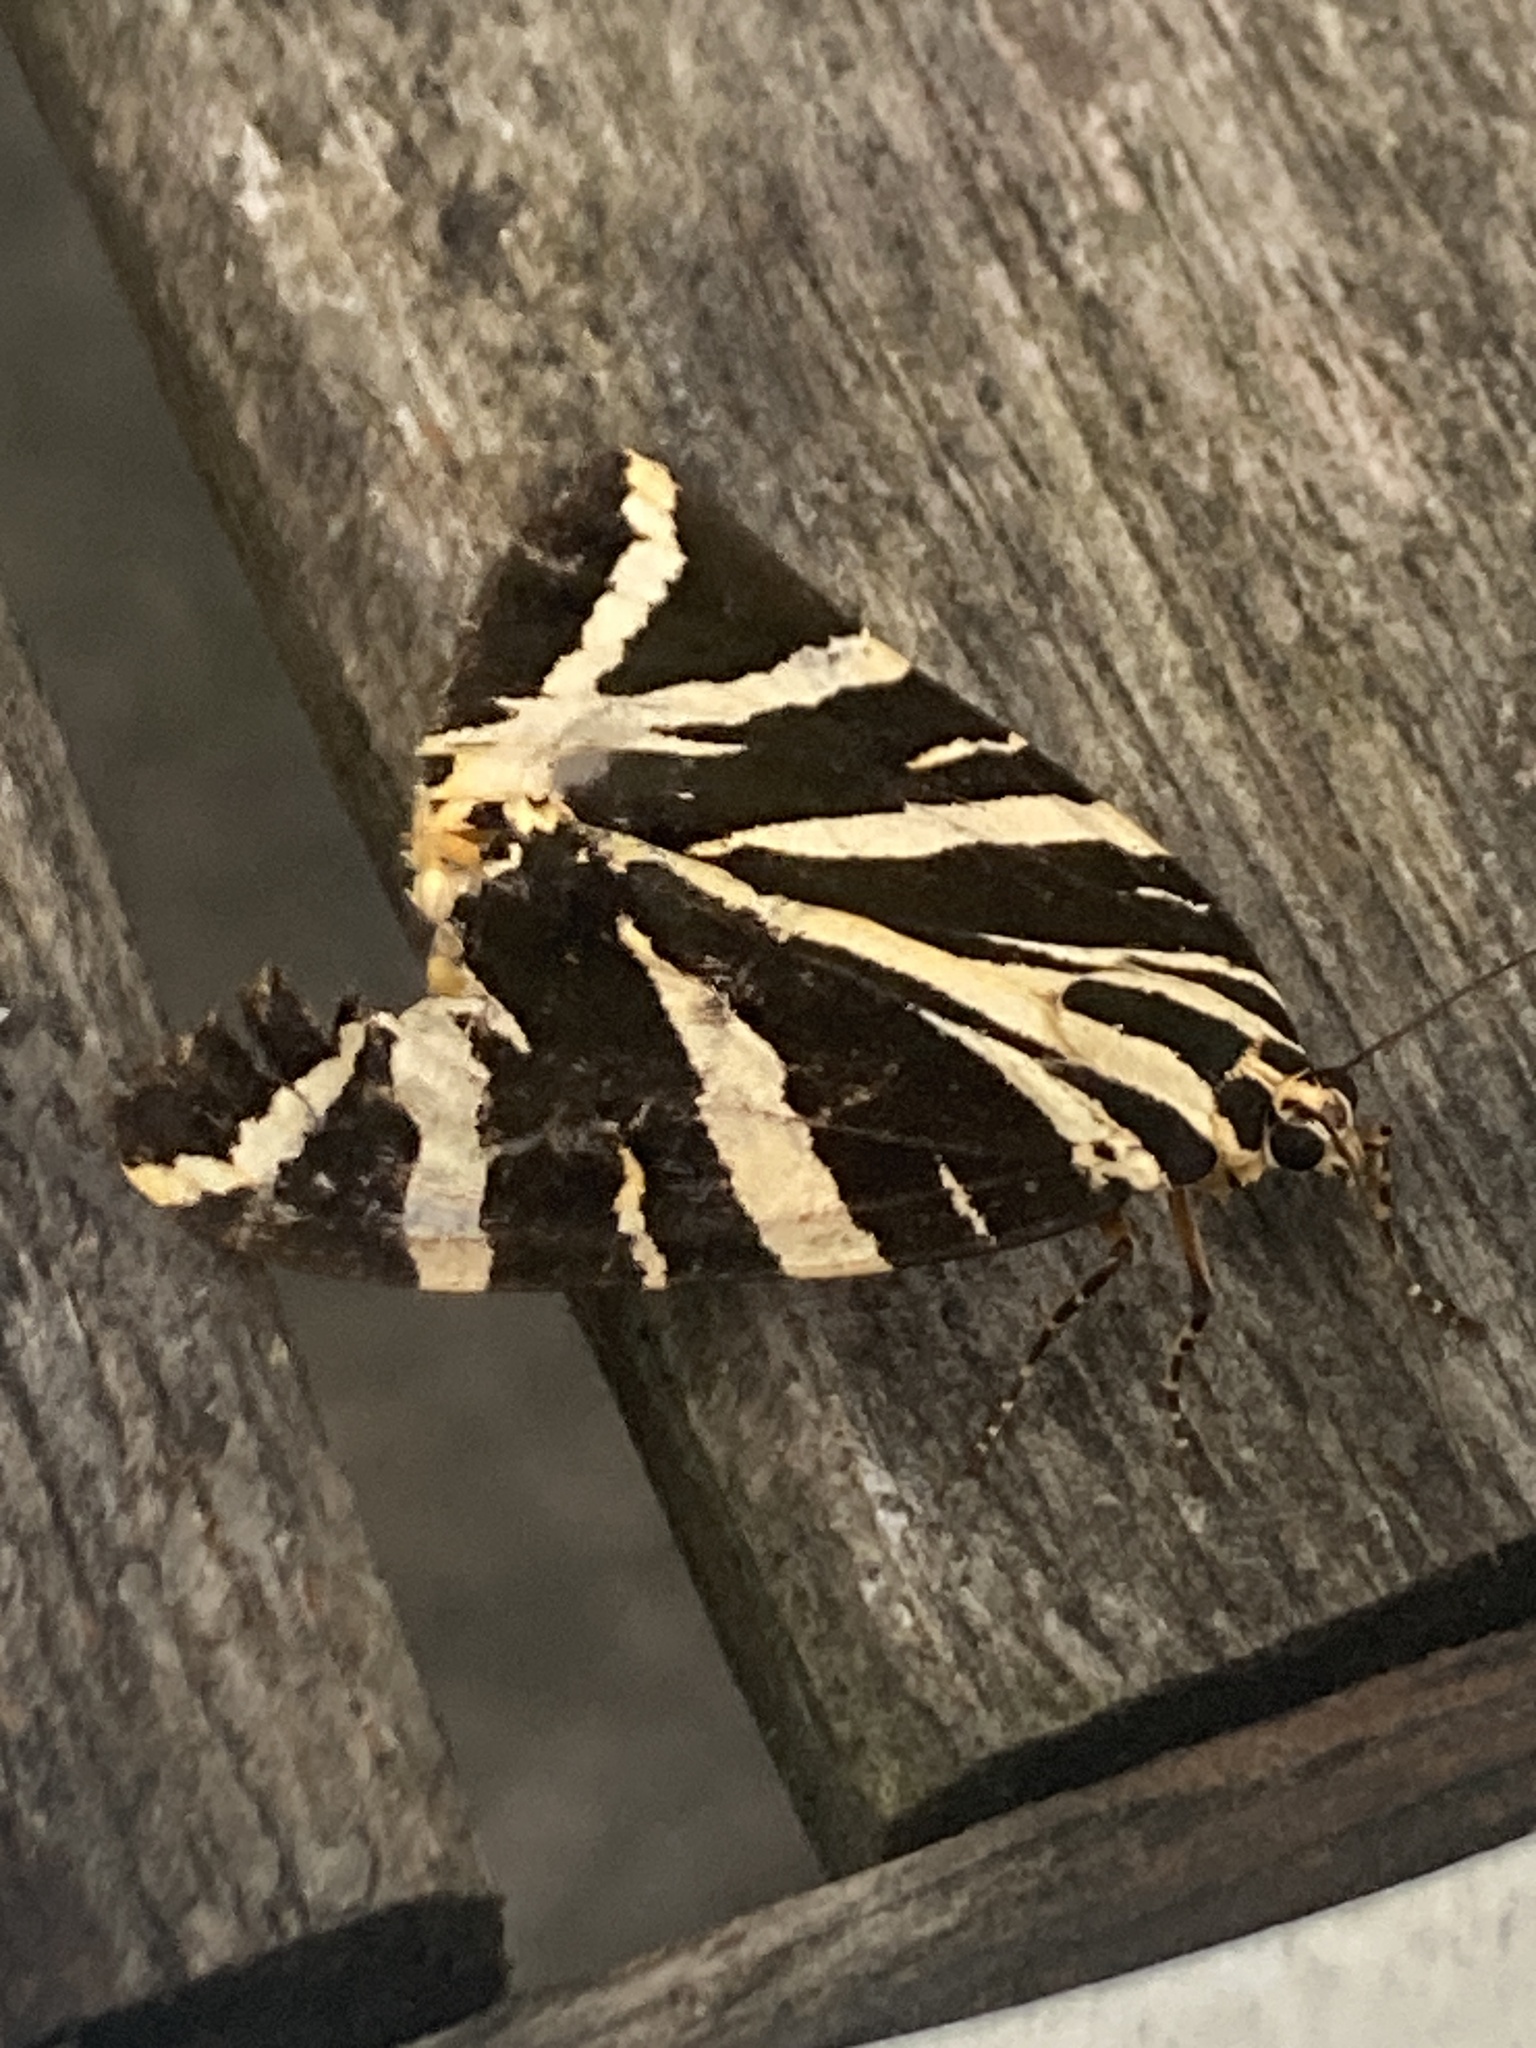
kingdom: Animalia
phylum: Arthropoda
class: Insecta
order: Lepidoptera
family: Erebidae
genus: Euplagia
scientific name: Euplagia quadripunctaria
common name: Jersey tiger
